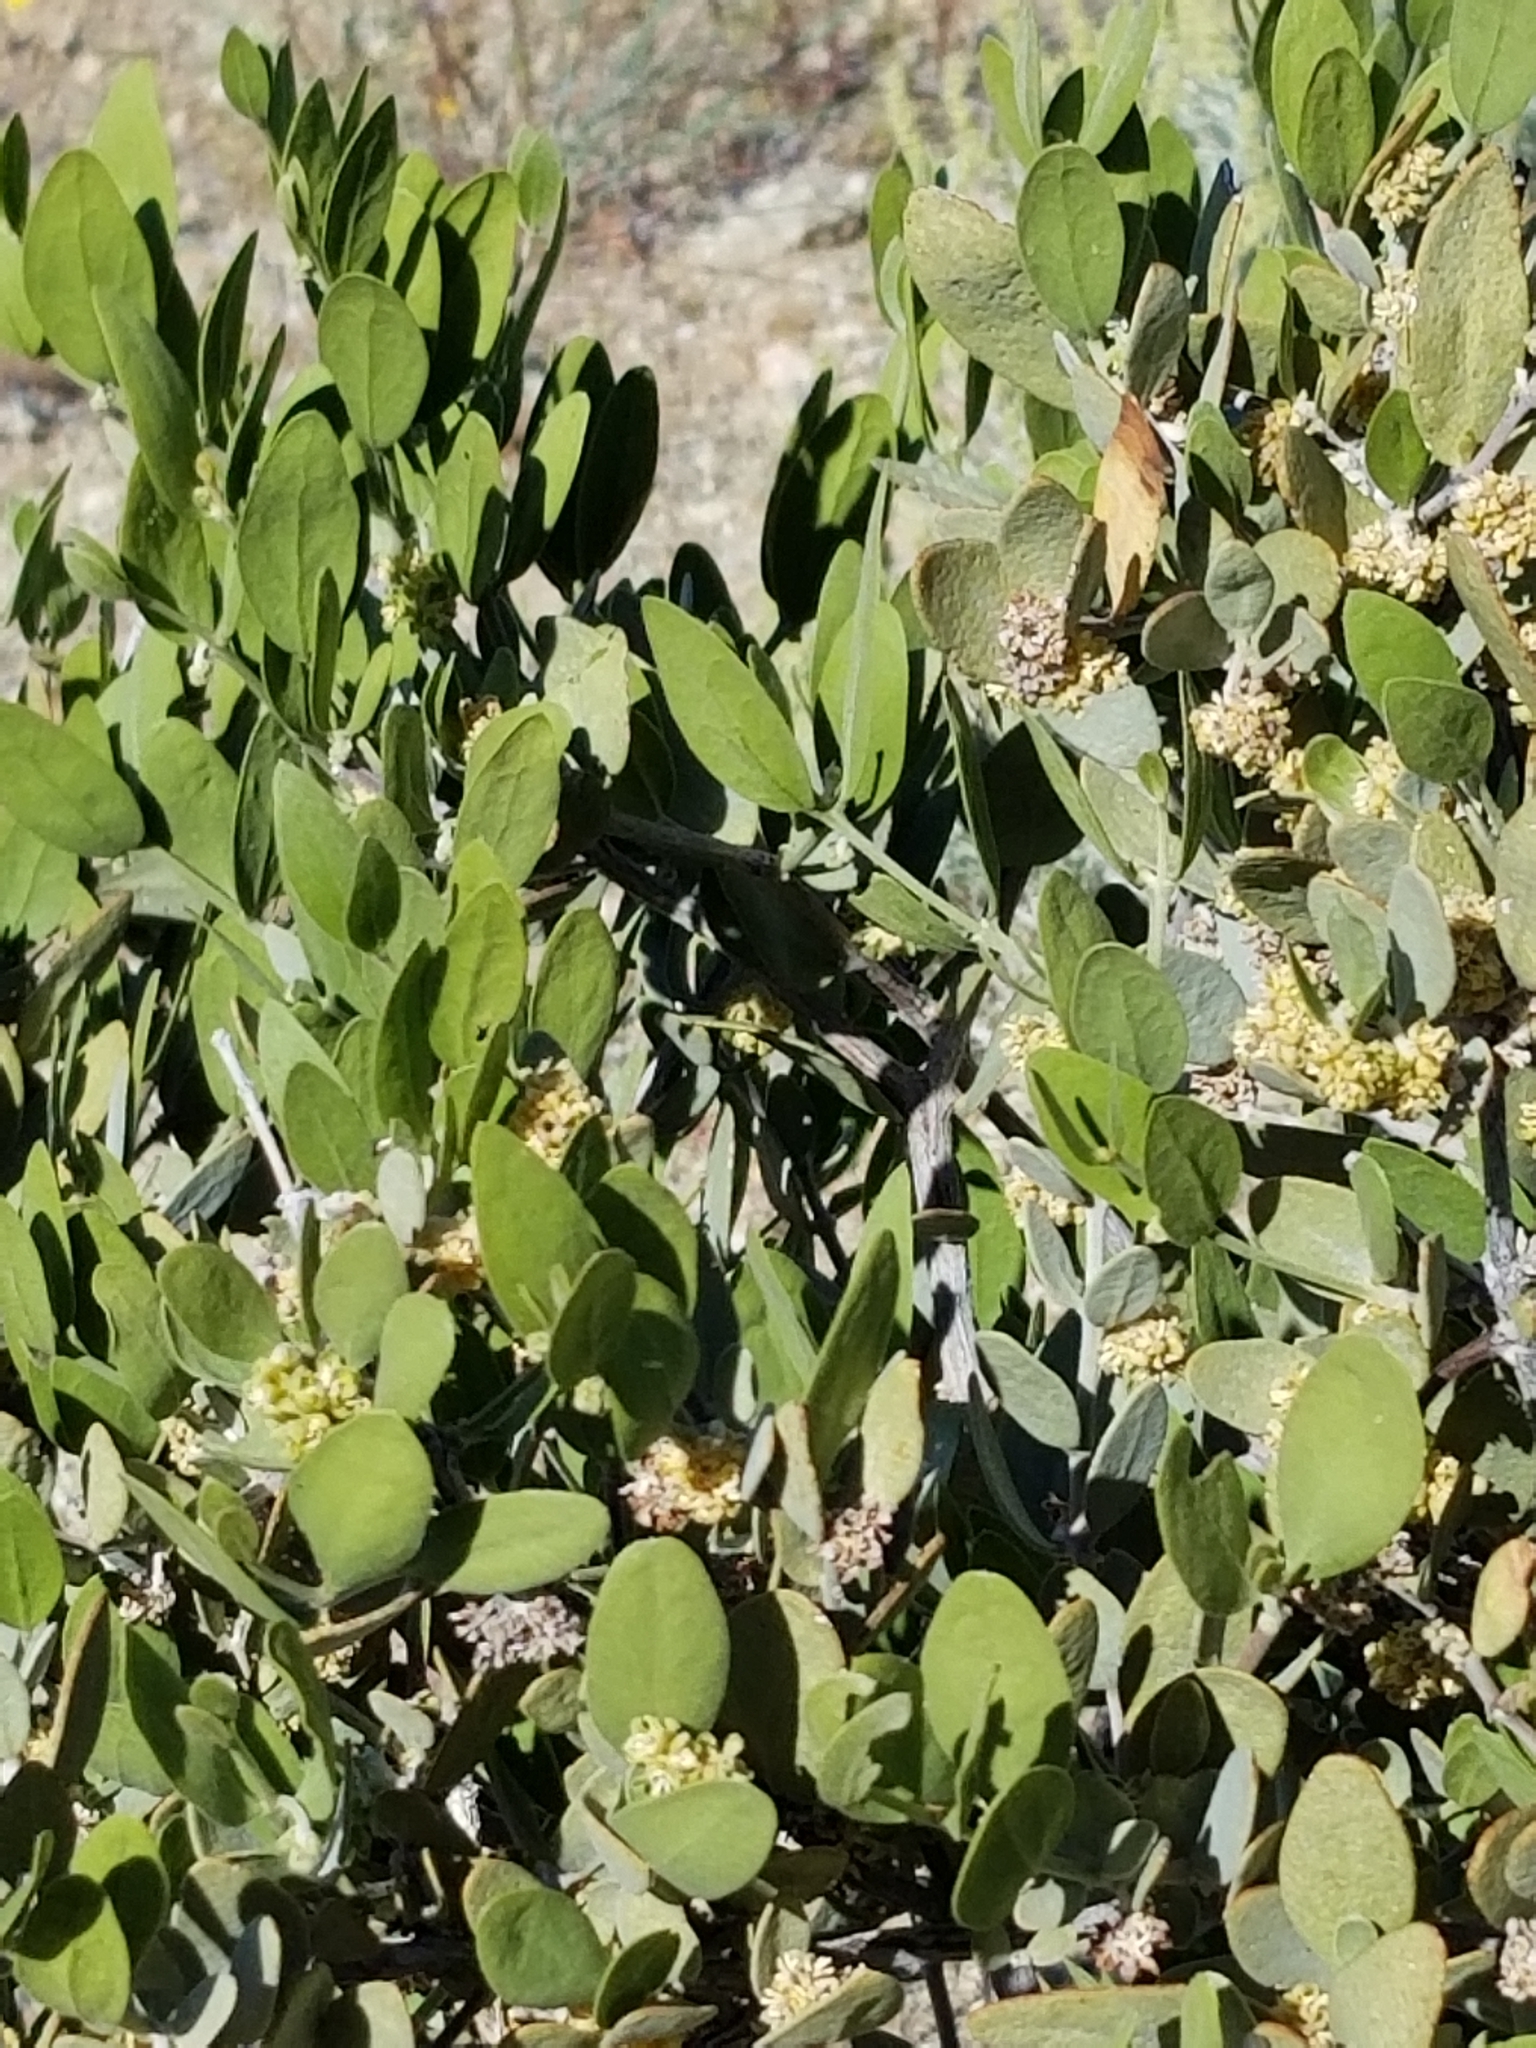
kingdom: Plantae
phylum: Tracheophyta
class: Magnoliopsida
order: Caryophyllales
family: Simmondsiaceae
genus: Simmondsia
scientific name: Simmondsia chinensis
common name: Jojoba
